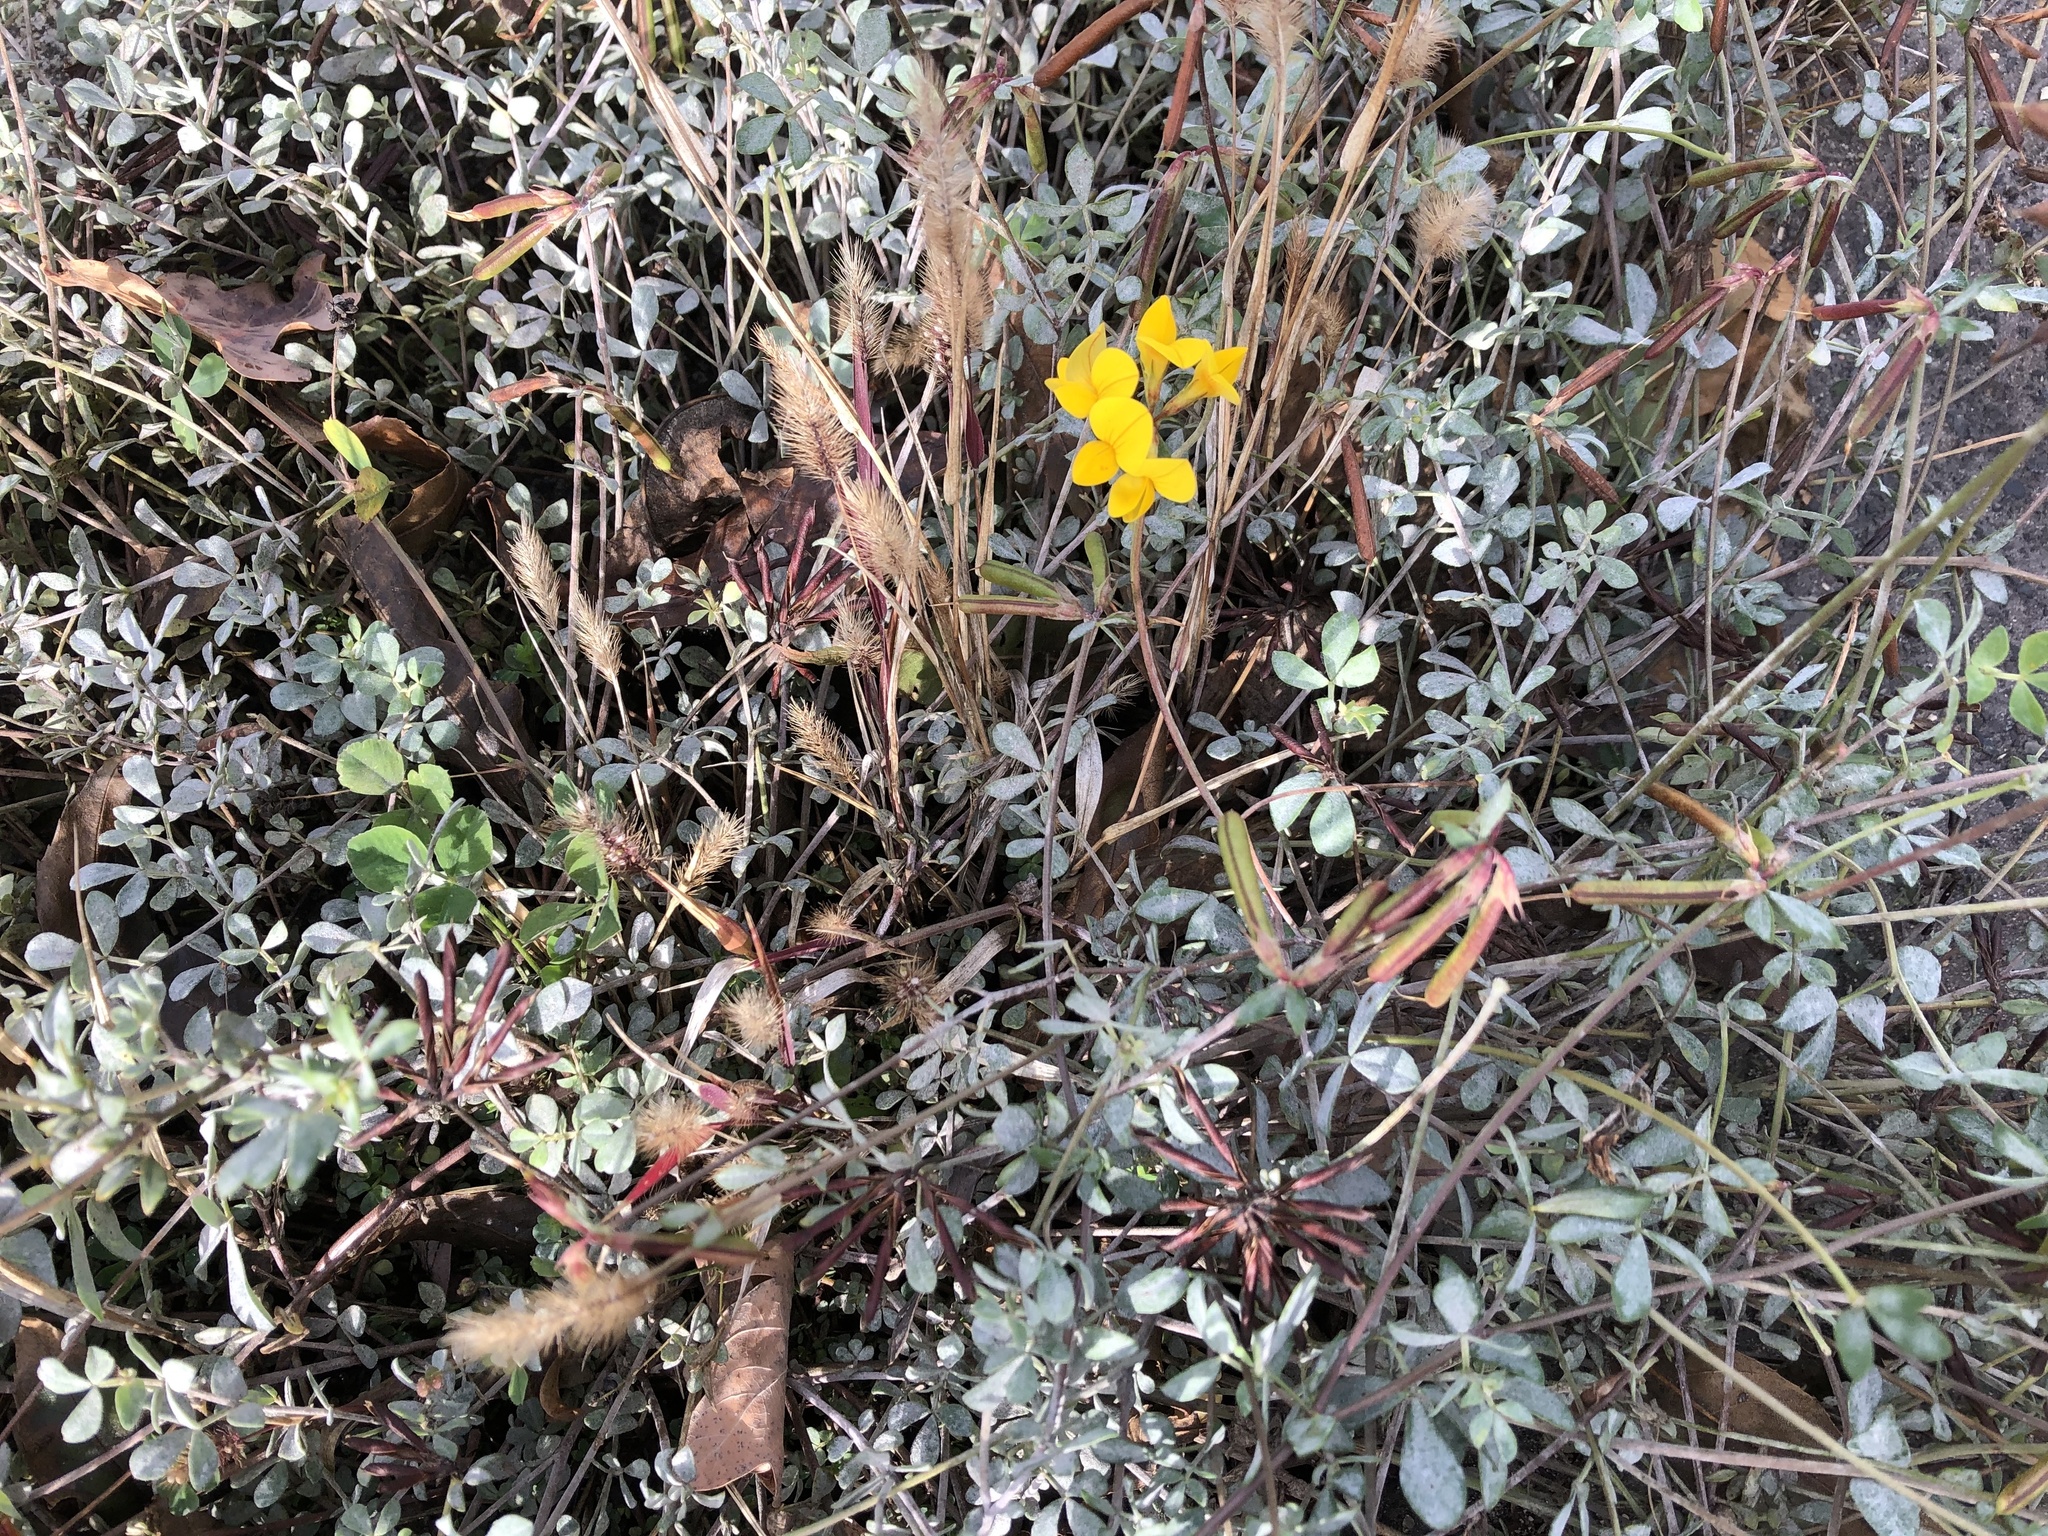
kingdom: Plantae
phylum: Tracheophyta
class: Magnoliopsida
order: Fabales
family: Fabaceae
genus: Lotus
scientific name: Lotus corniculatus
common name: Common bird's-foot-trefoil
